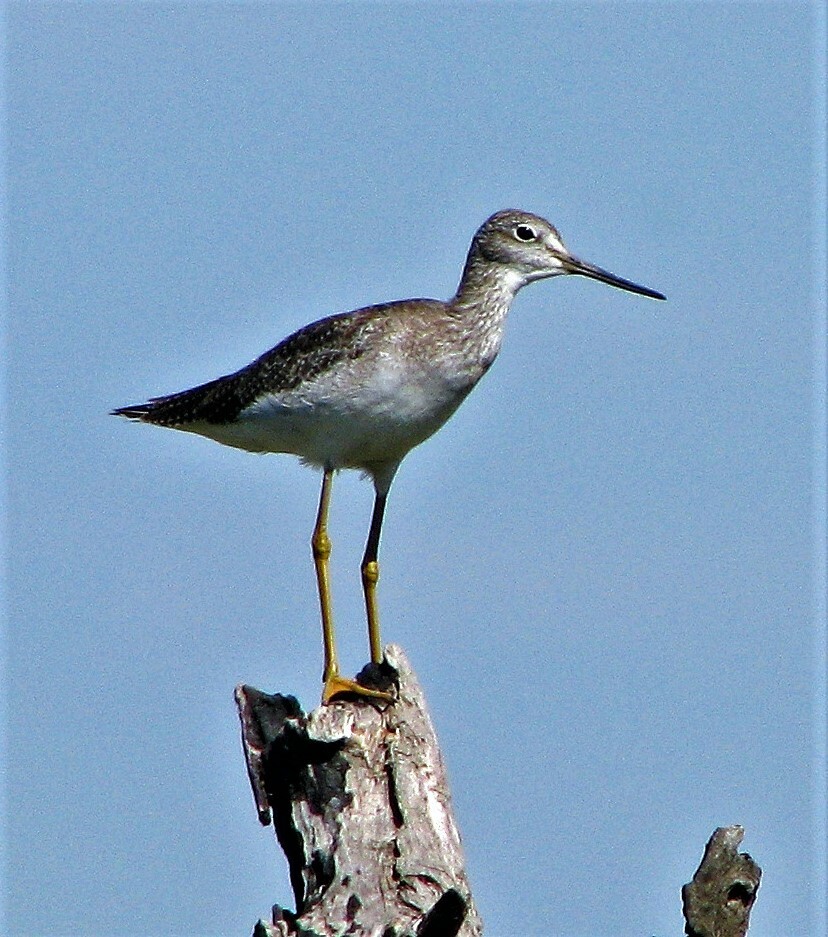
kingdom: Animalia
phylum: Chordata
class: Aves
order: Charadriiformes
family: Scolopacidae
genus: Tringa
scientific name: Tringa flavipes
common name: Lesser yellowlegs
